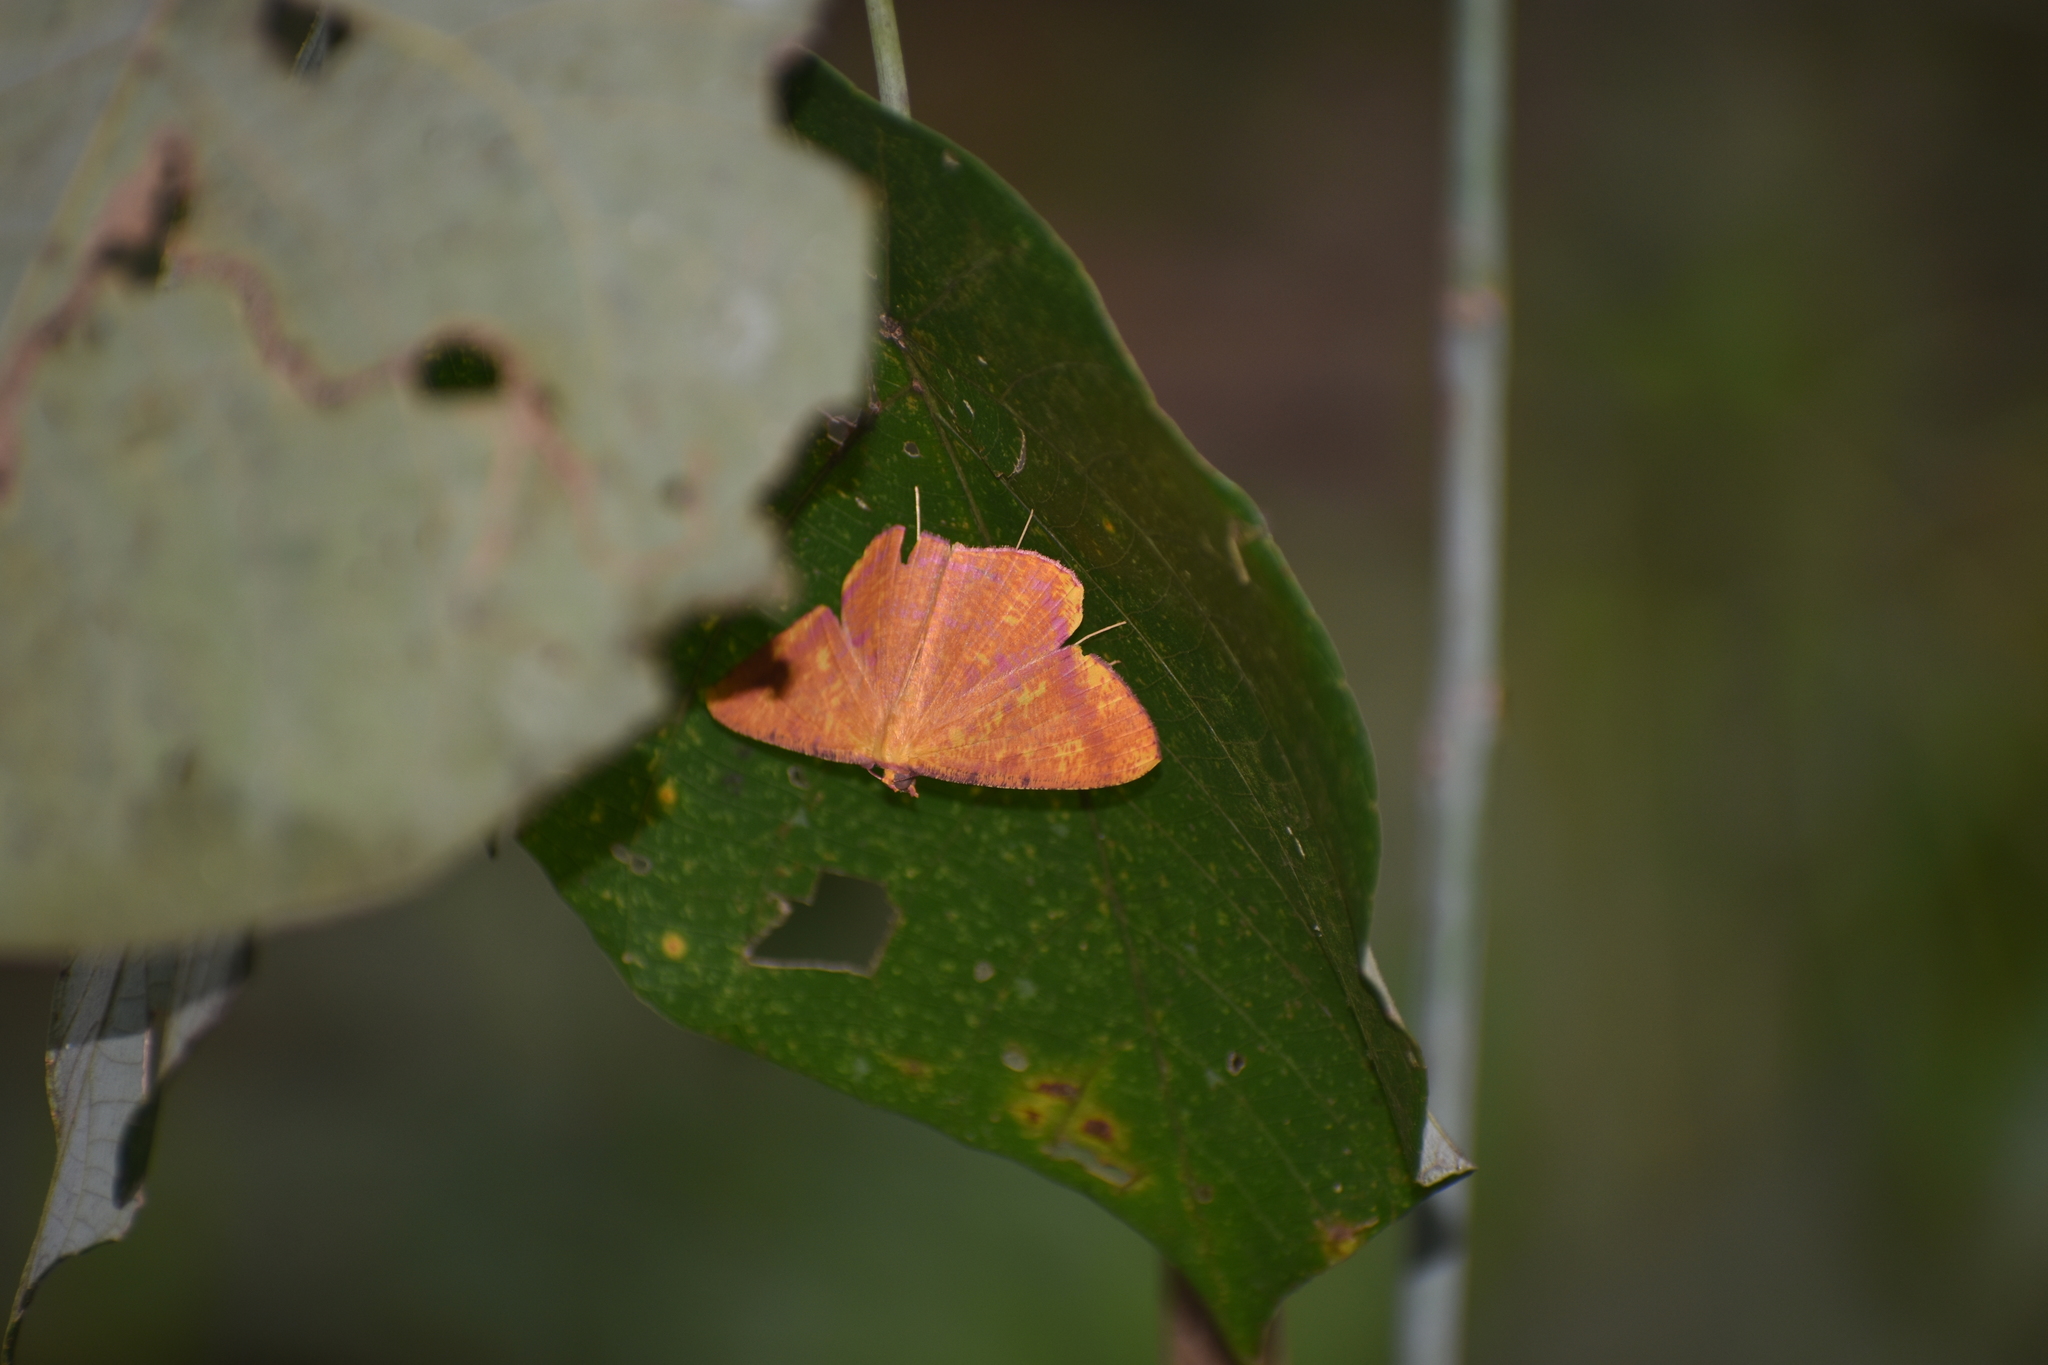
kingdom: Animalia
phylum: Arthropoda
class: Insecta
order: Lepidoptera
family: Geometridae
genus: Eumelea
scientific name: Eumelea ludovicata
